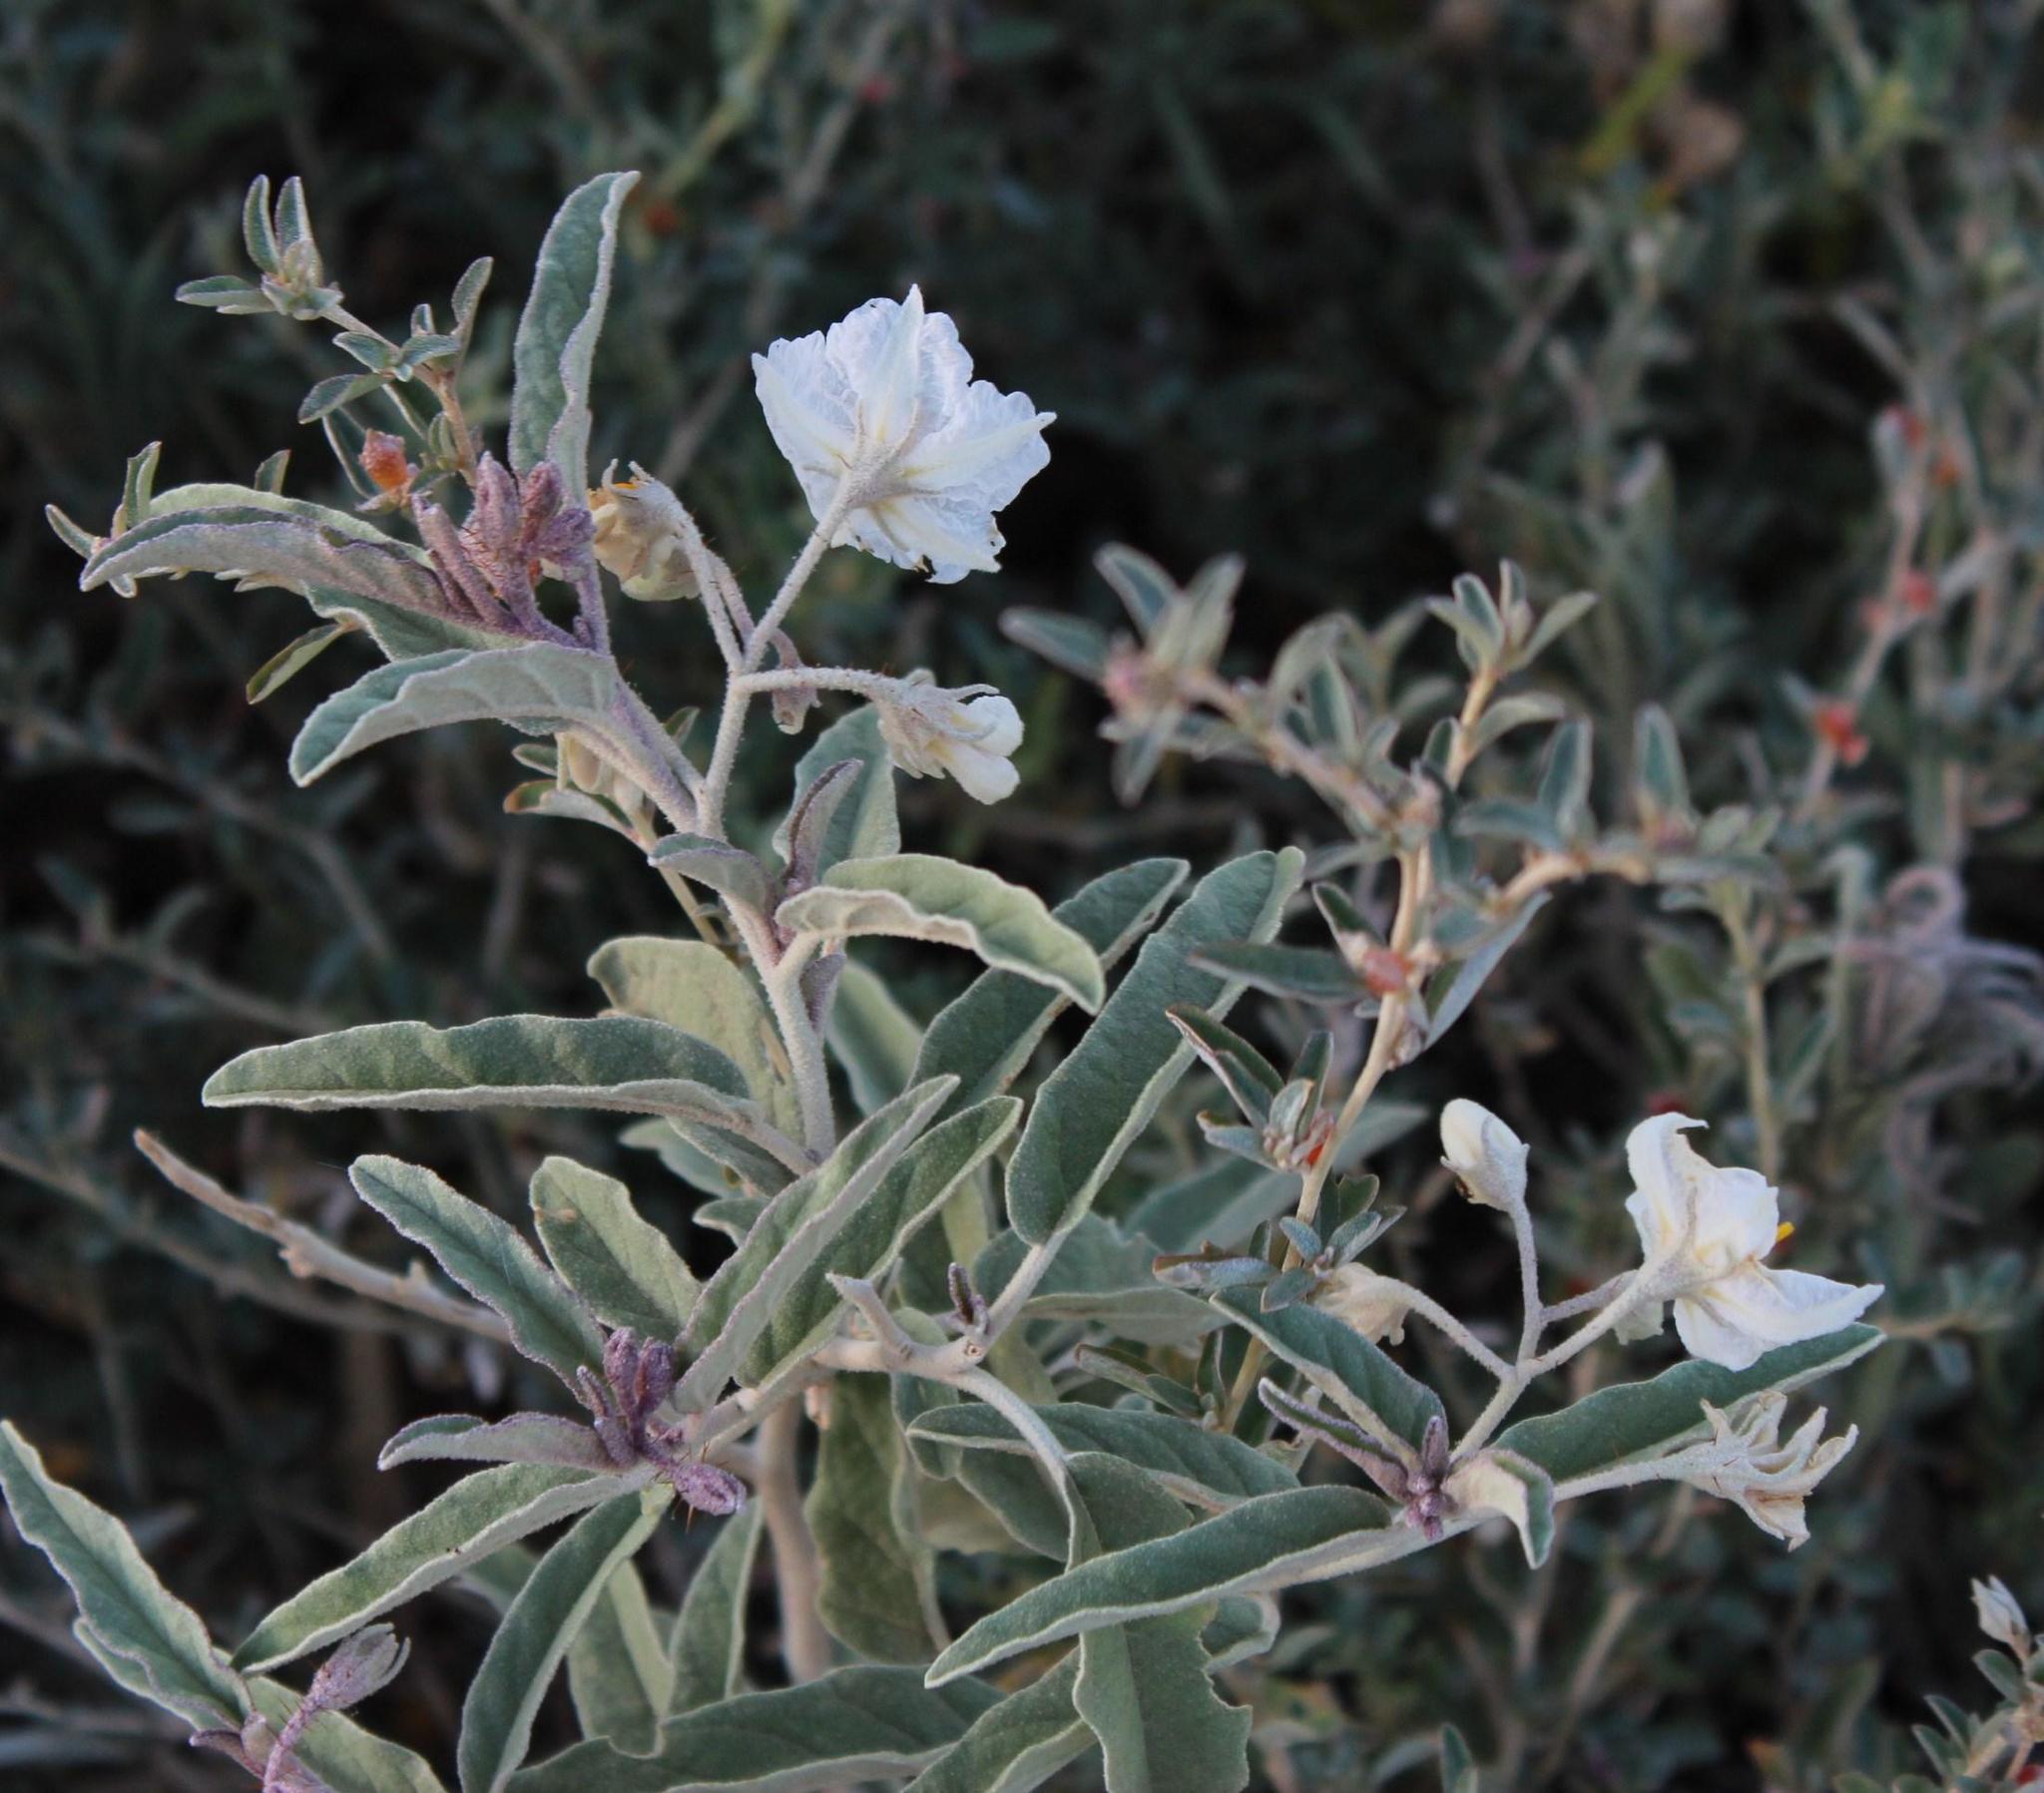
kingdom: Plantae
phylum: Tracheophyta
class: Magnoliopsida
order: Solanales
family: Solanaceae
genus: Solanum
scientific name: Solanum elaeagnifolium
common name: Silverleaf nightshade
